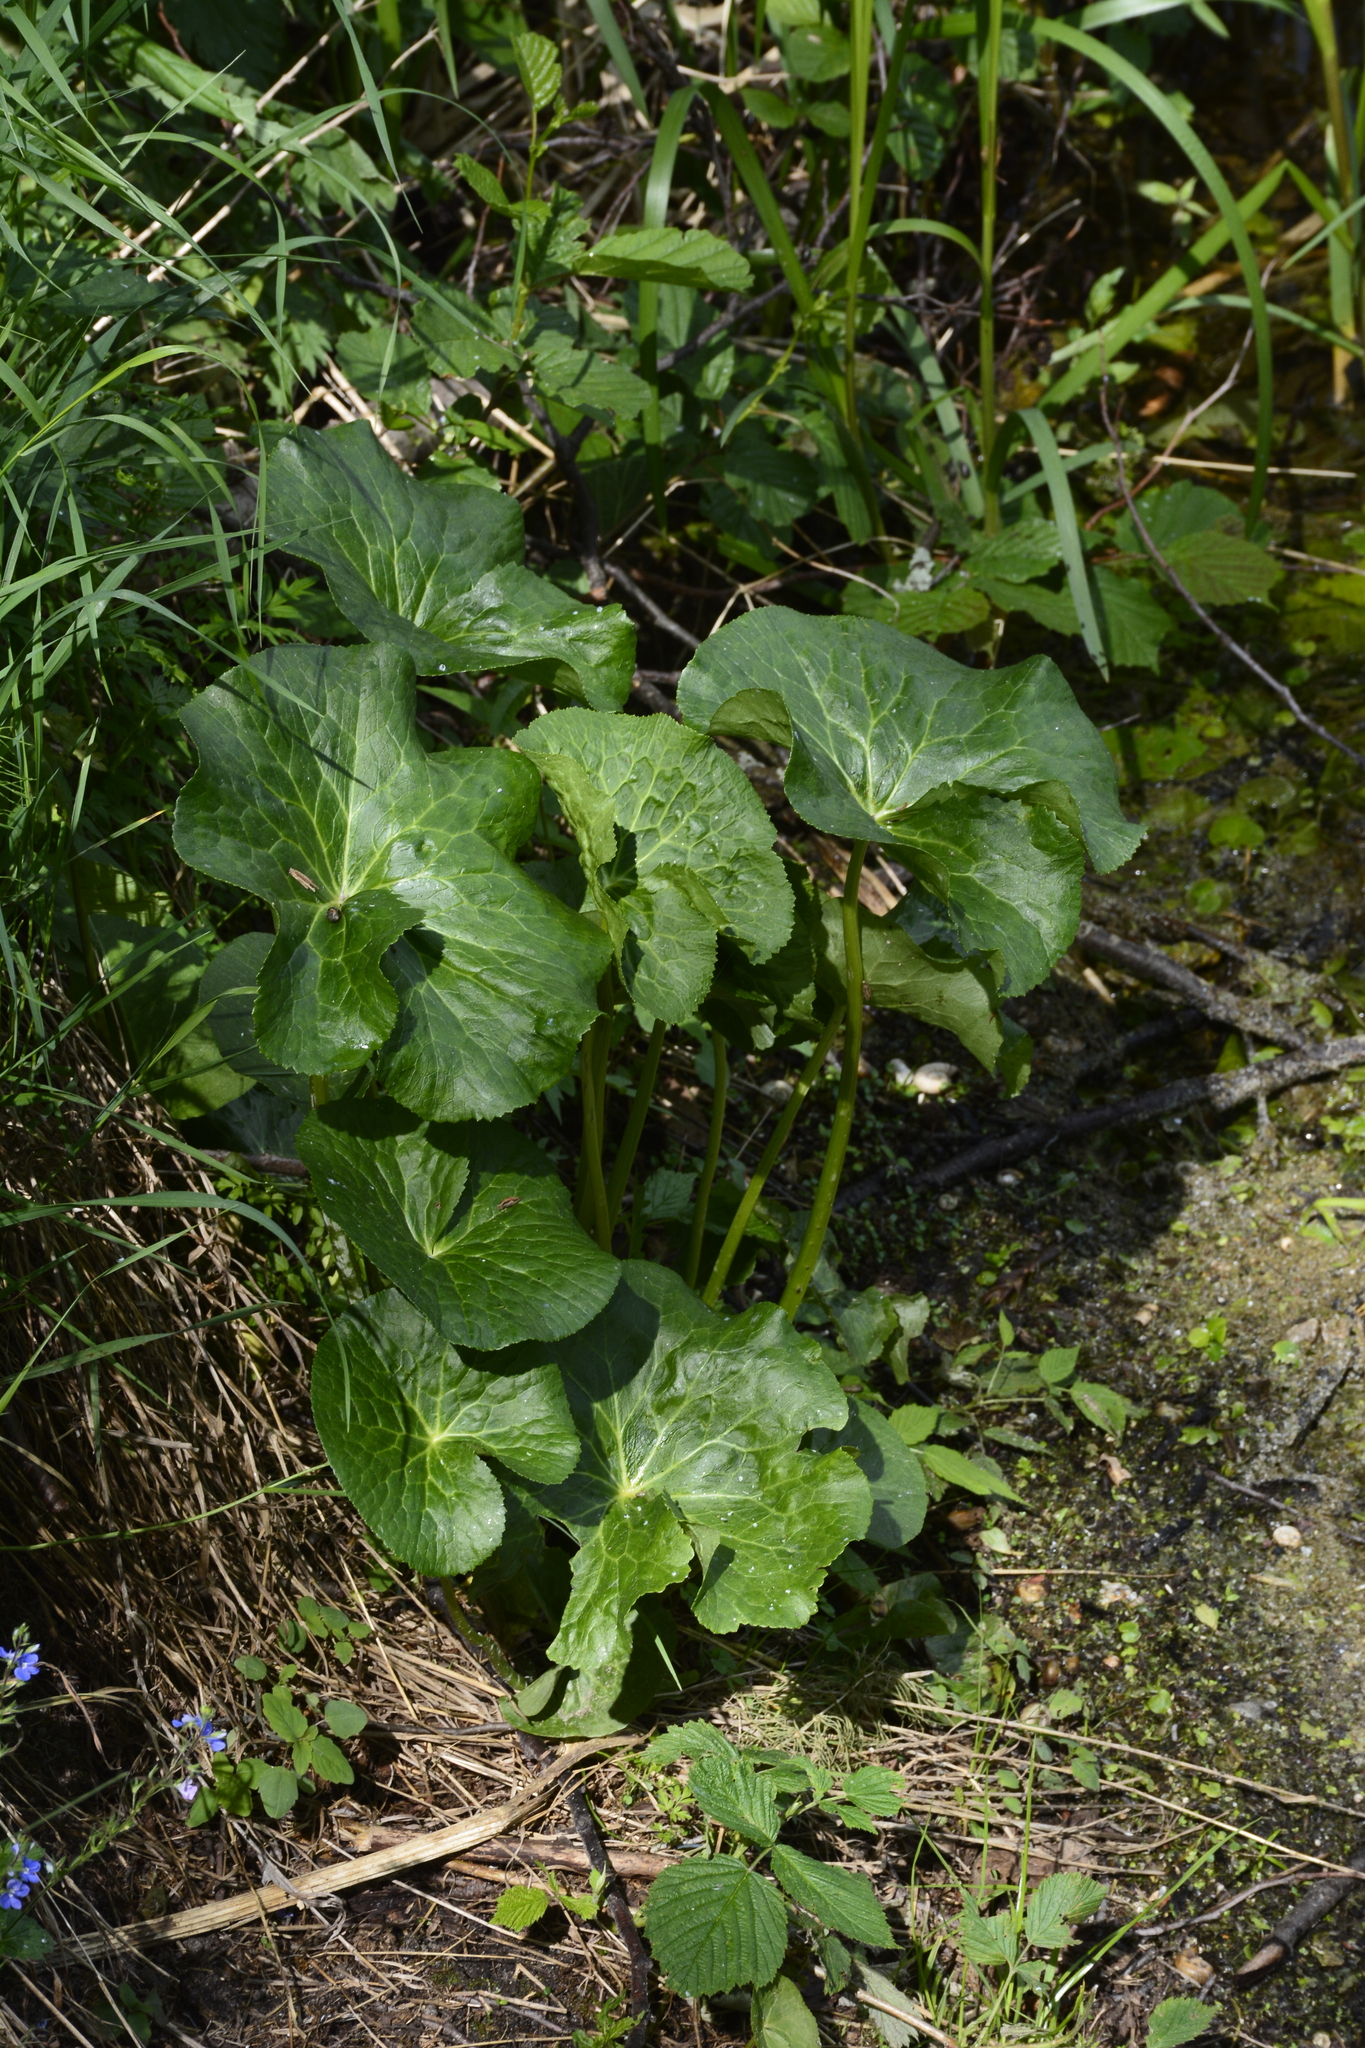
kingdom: Plantae
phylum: Tracheophyta
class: Magnoliopsida
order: Ranunculales
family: Ranunculaceae
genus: Caltha
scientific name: Caltha palustris
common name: Marsh marigold
